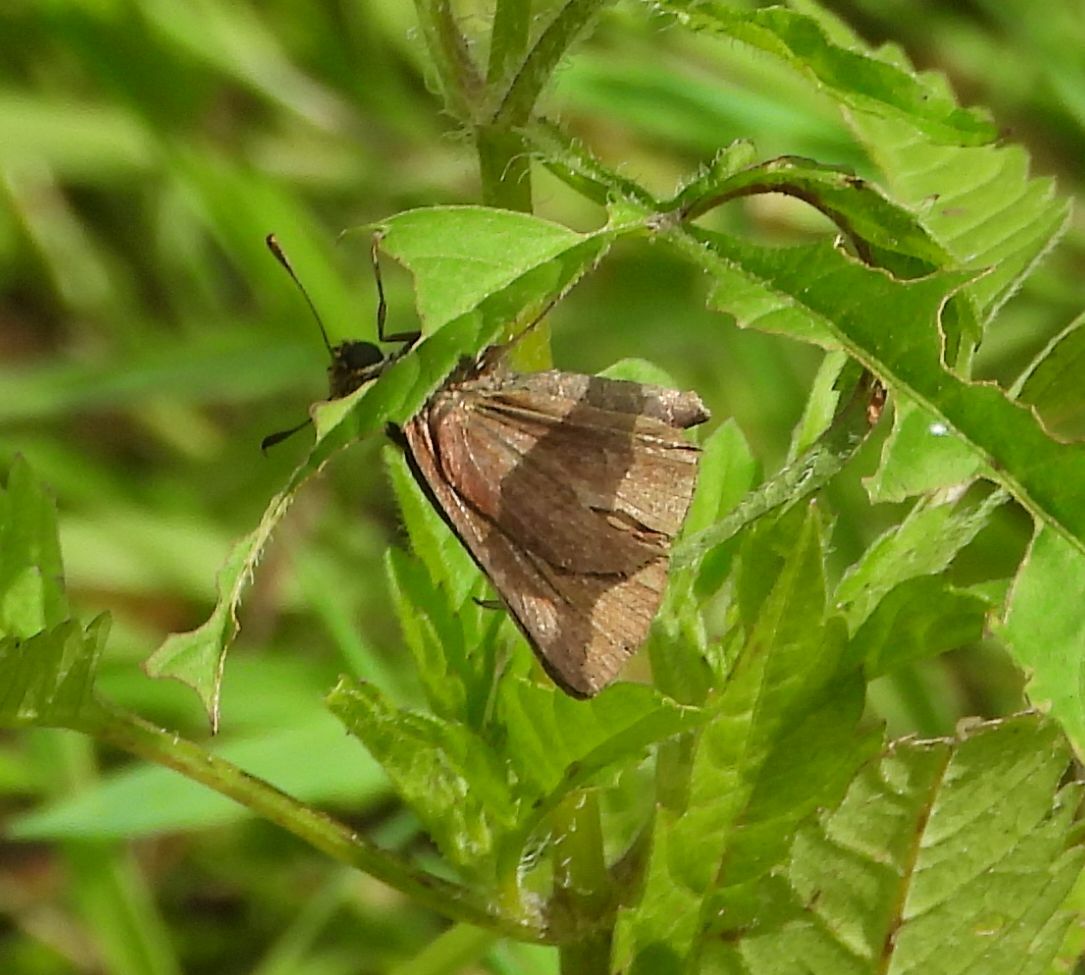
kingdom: Animalia
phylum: Arthropoda
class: Insecta
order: Lepidoptera
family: Hesperiidae
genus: Euphyes
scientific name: Euphyes vestris
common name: Dun skipper
